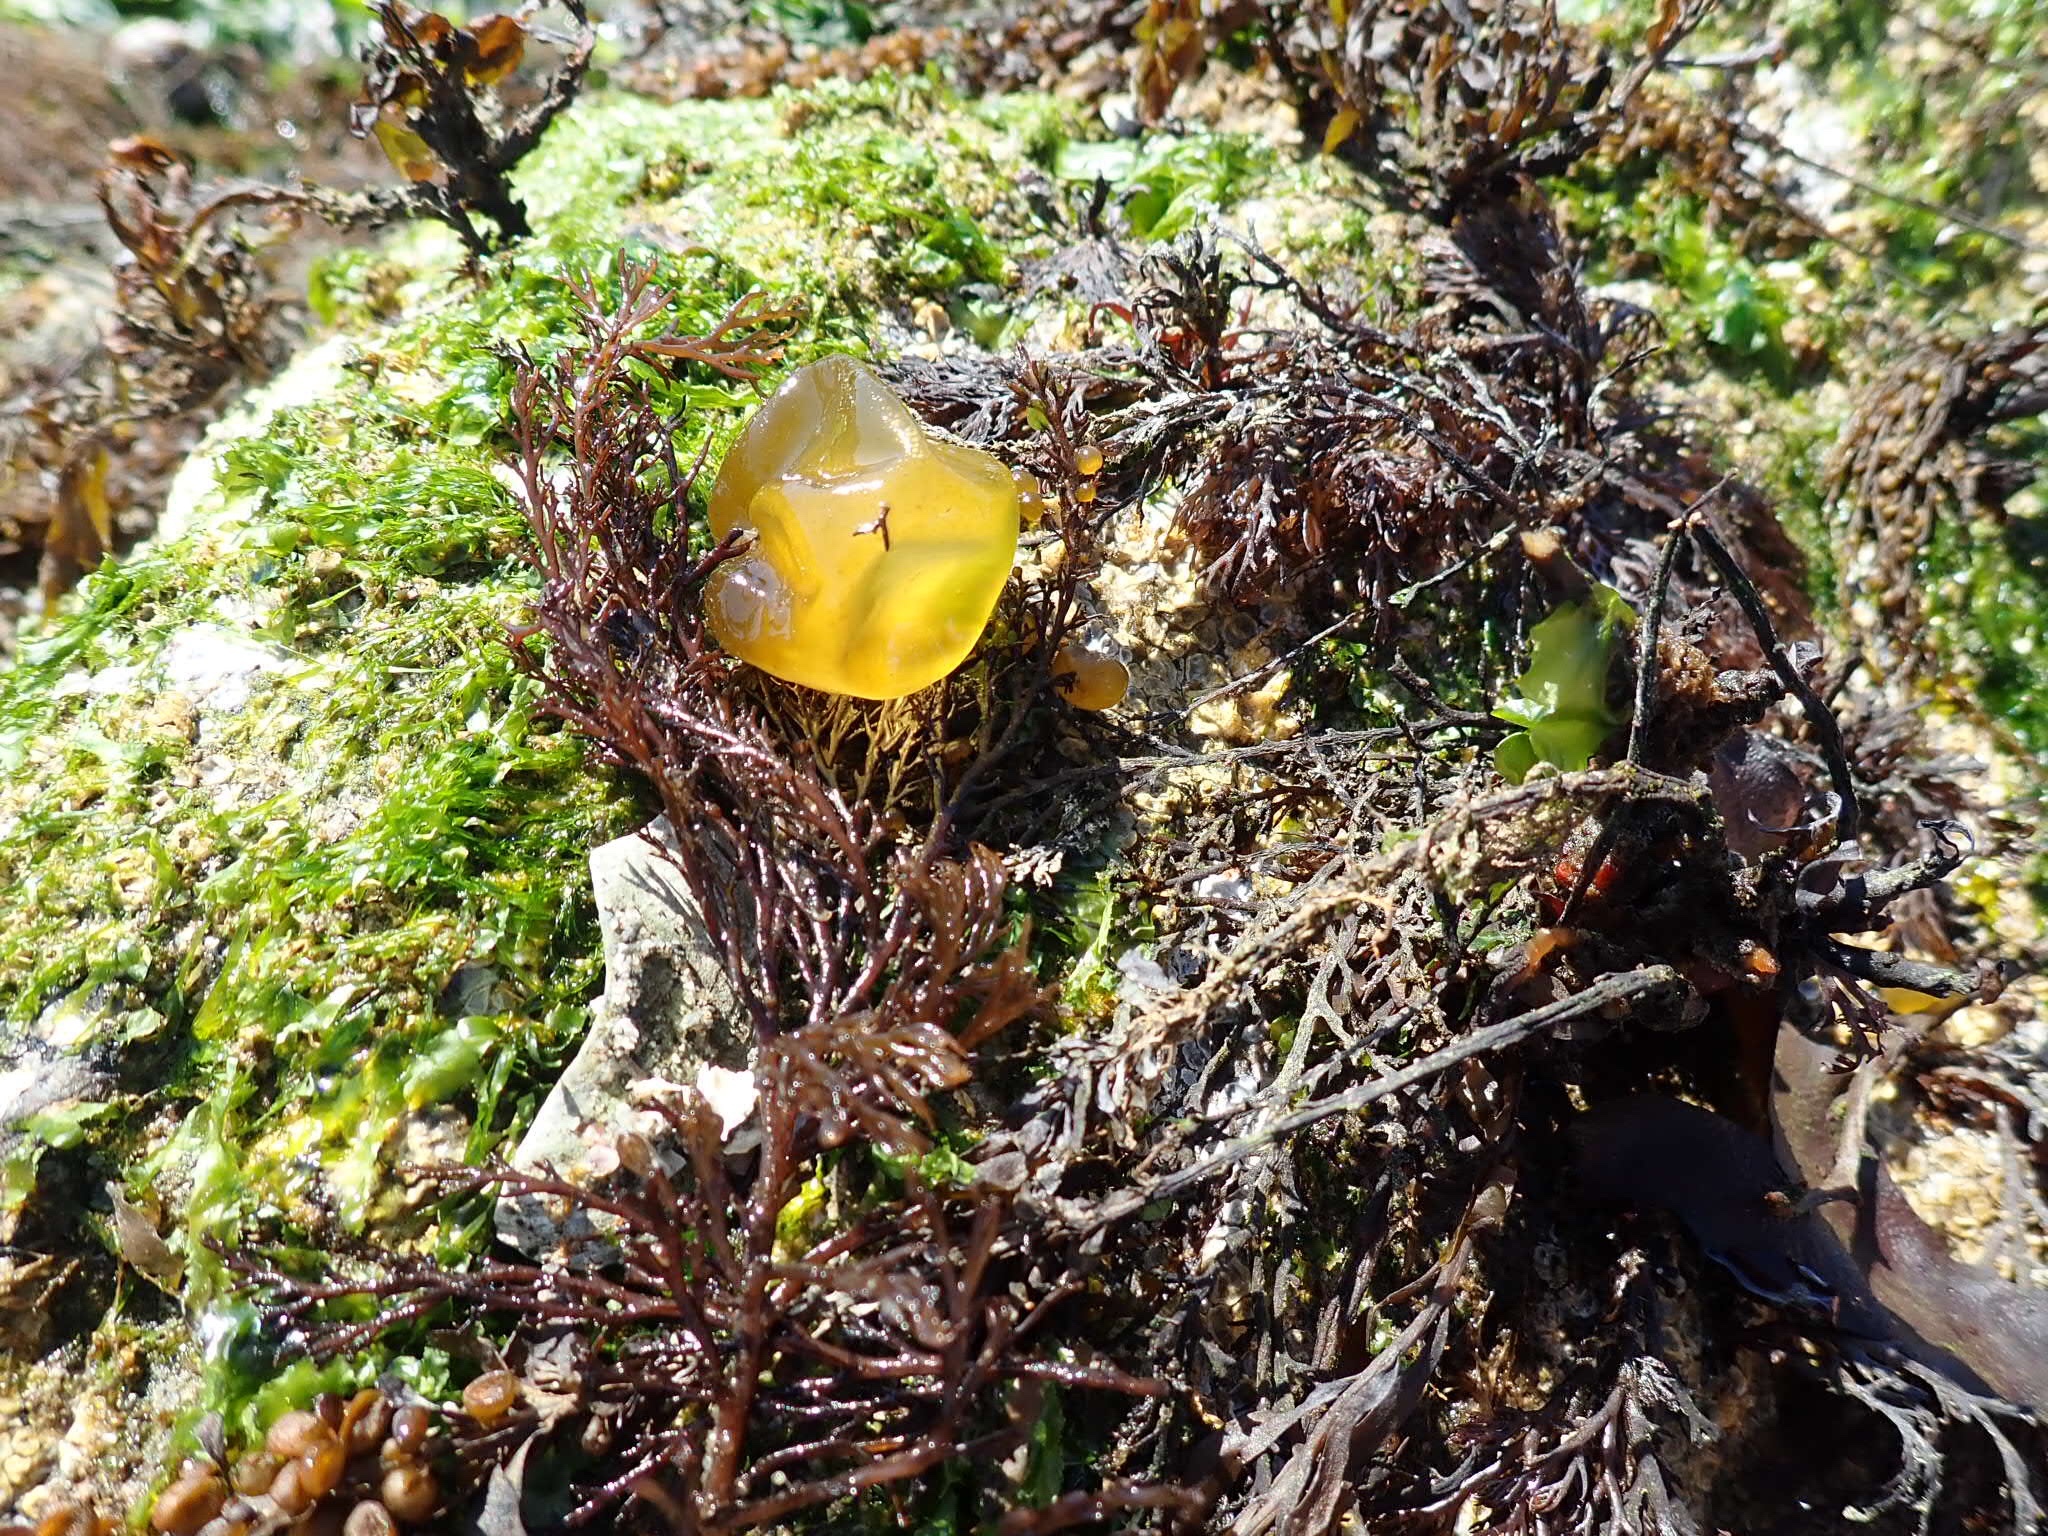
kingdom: Chromista
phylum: Ochrophyta
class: Phaeophyceae
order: Scytosiphonales
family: Scytosiphonaceae
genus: Colpomenia
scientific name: Colpomenia peregrina
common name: Oyster thief
